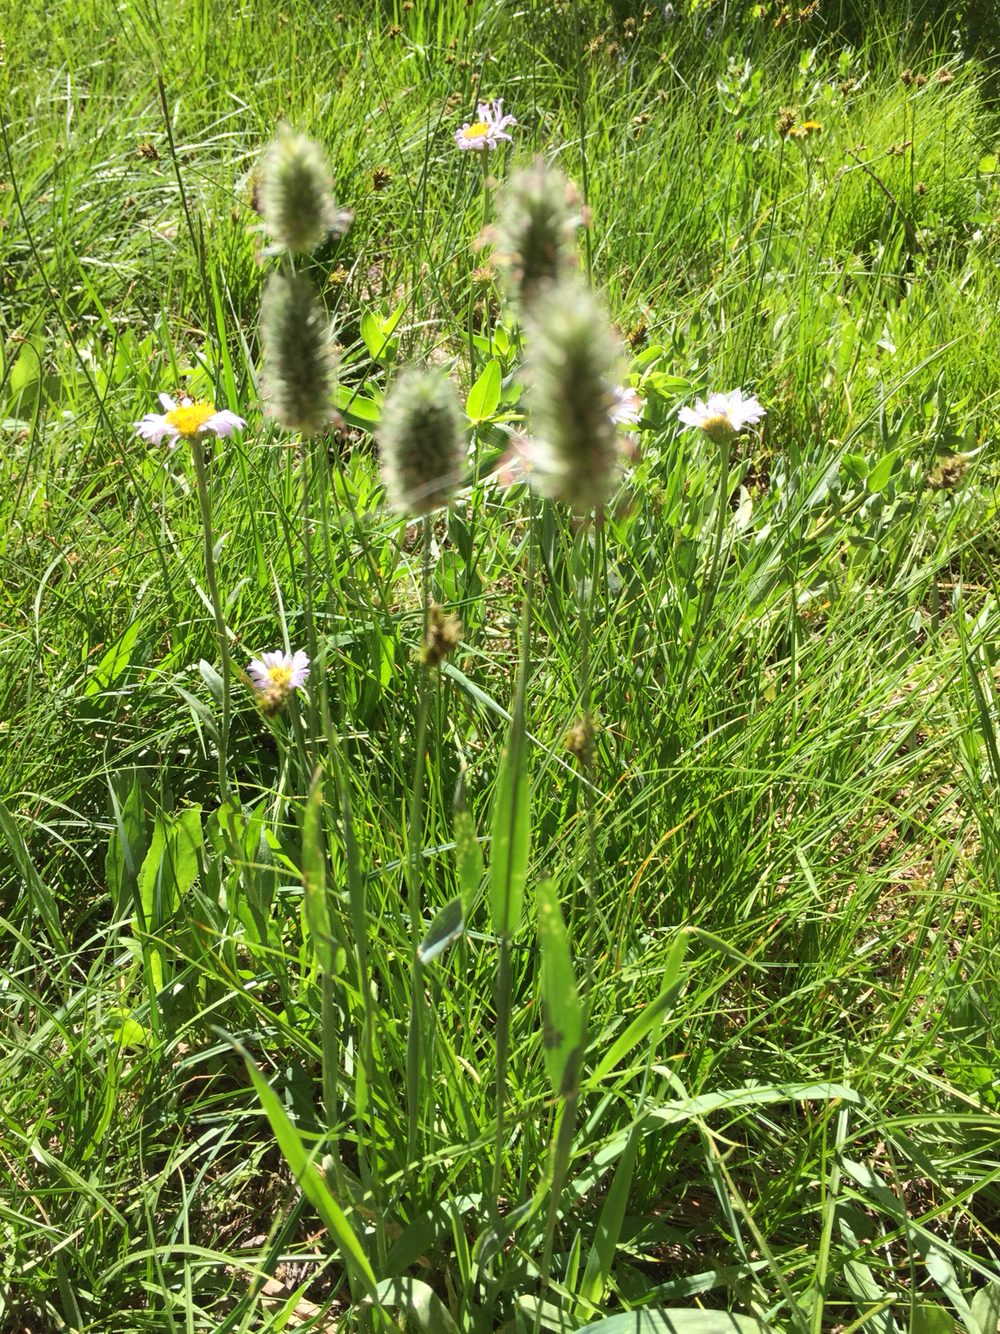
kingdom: Plantae
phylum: Tracheophyta
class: Liliopsida
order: Poales
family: Poaceae
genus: Phleum
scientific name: Phleum alpinum
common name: Alpine cat's-tail
